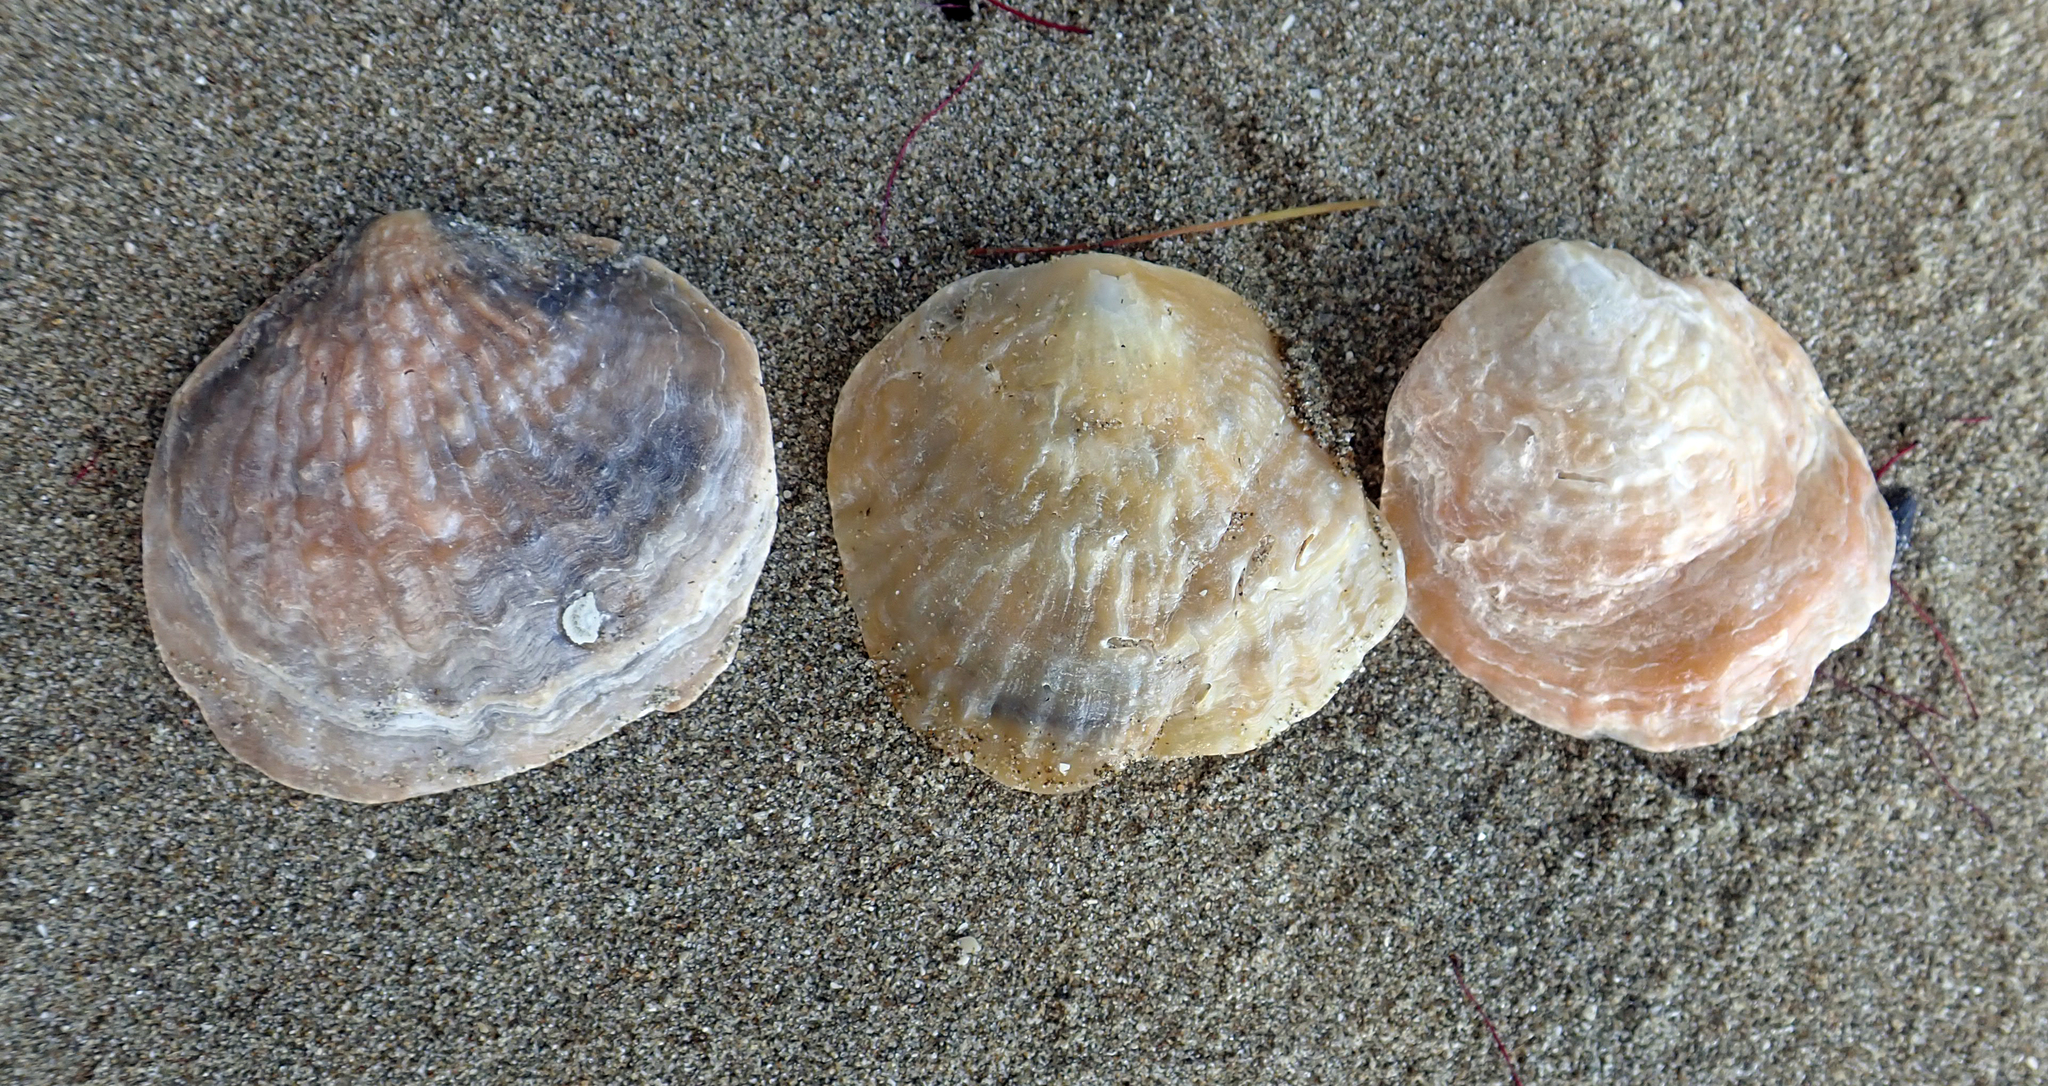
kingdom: Animalia
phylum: Mollusca
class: Bivalvia
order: Pectinida
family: Anomiidae
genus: Anomia
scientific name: Anomia trigonopsis
